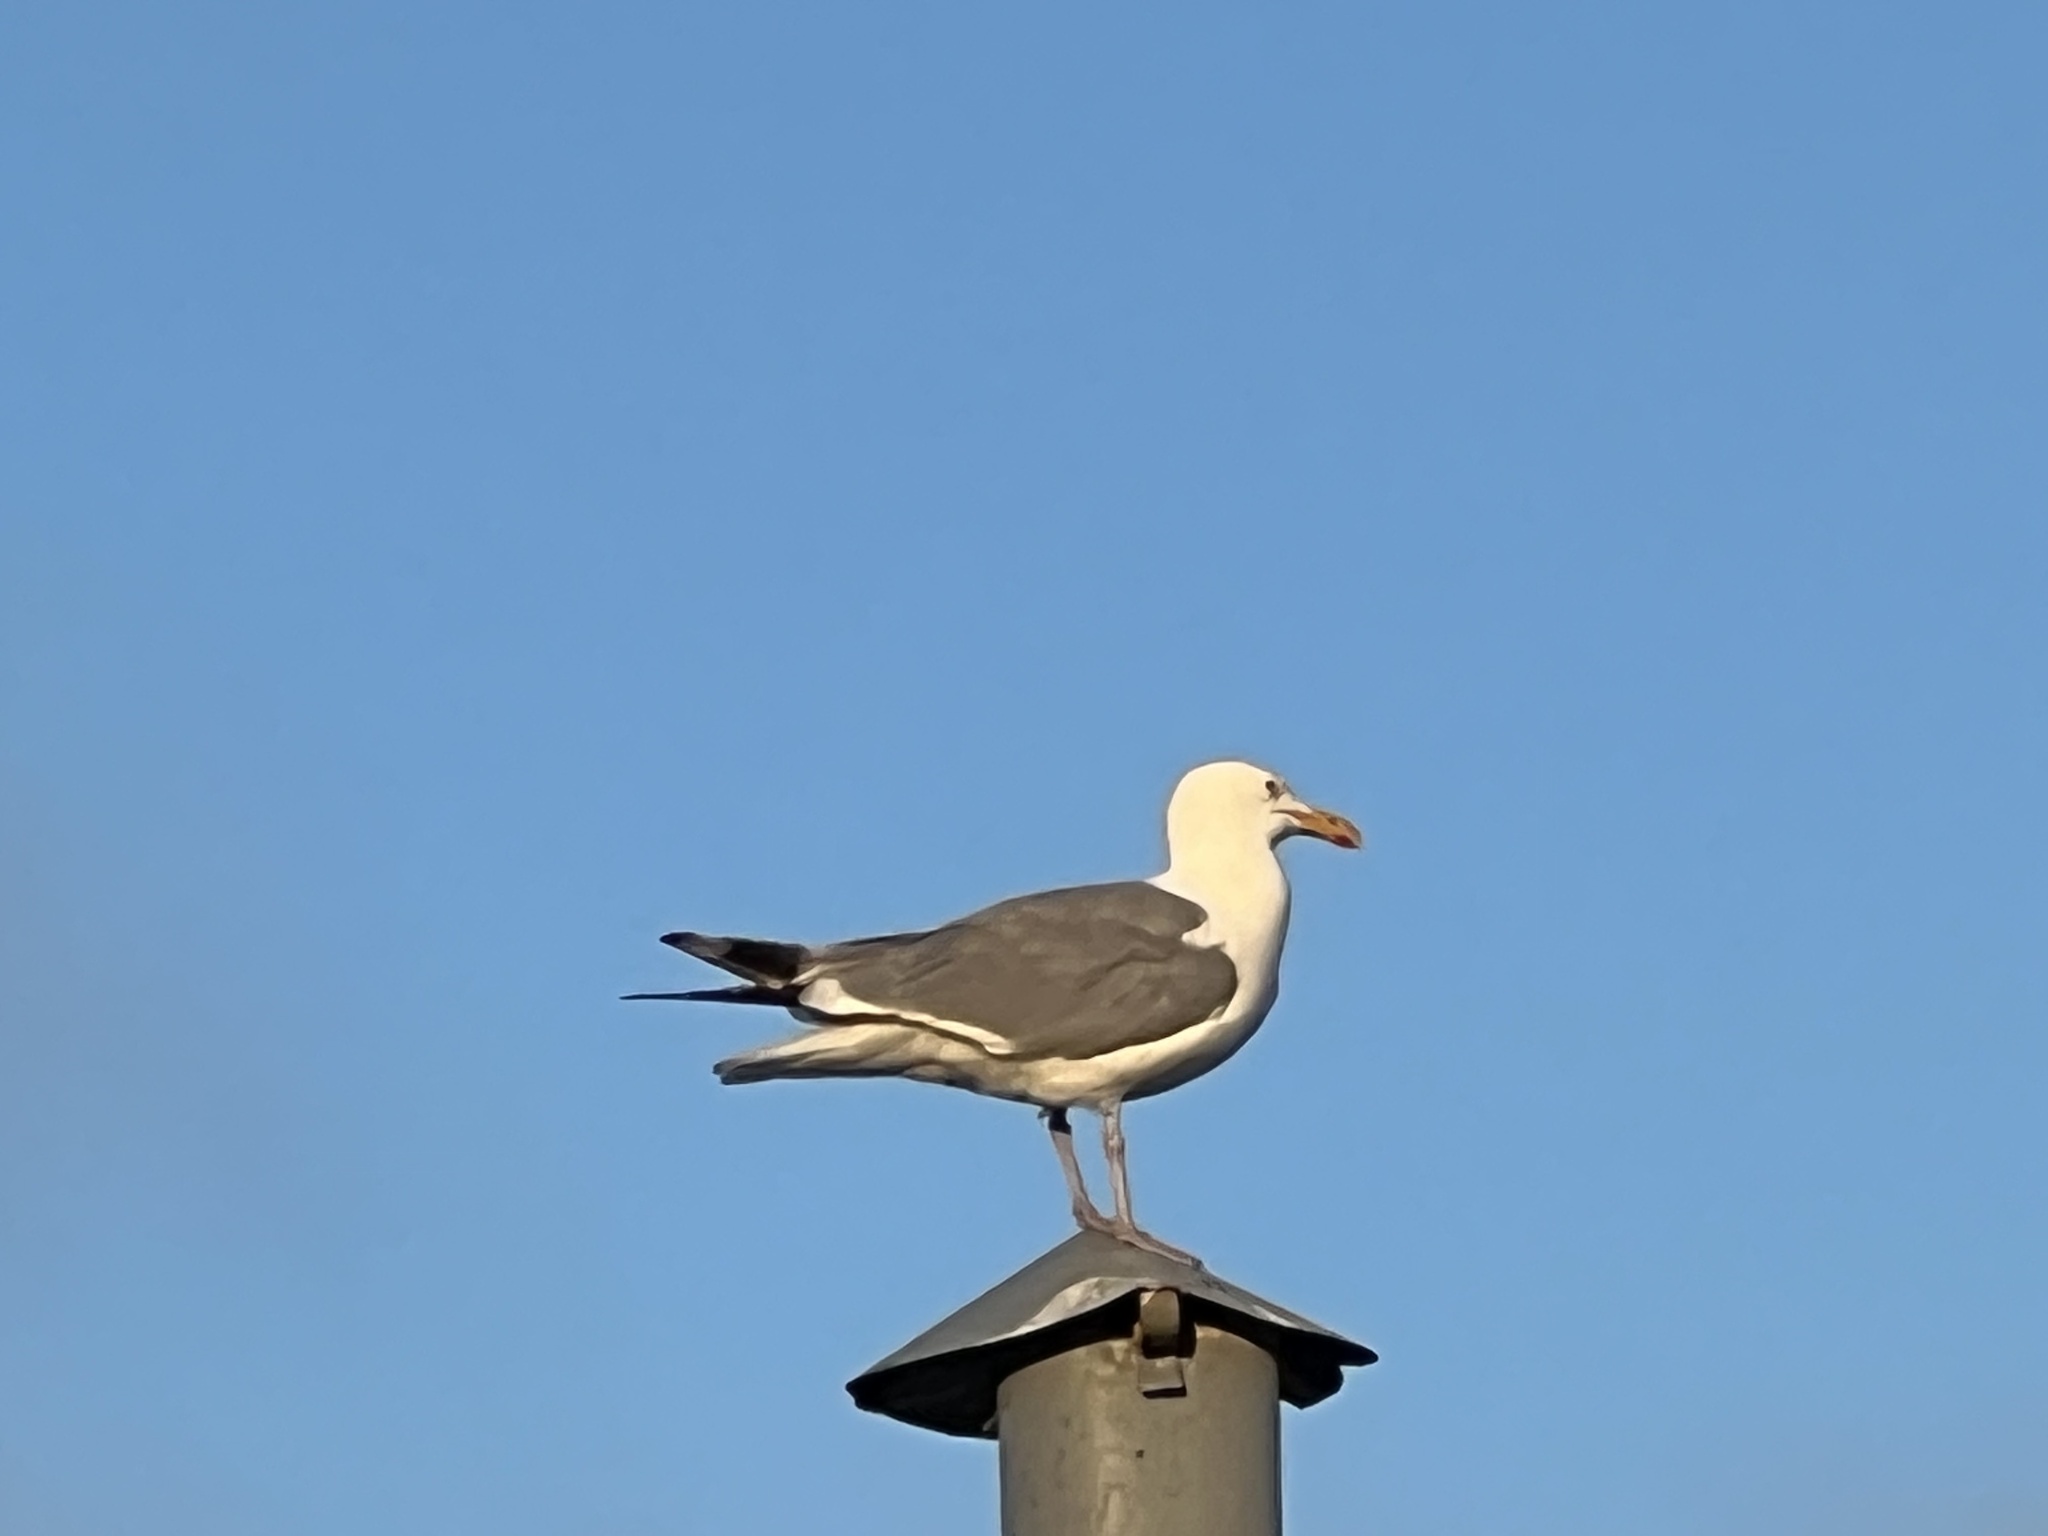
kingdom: Animalia
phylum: Chordata
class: Aves
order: Charadriiformes
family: Laridae
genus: Larus
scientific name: Larus argentatus
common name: Herring gull
